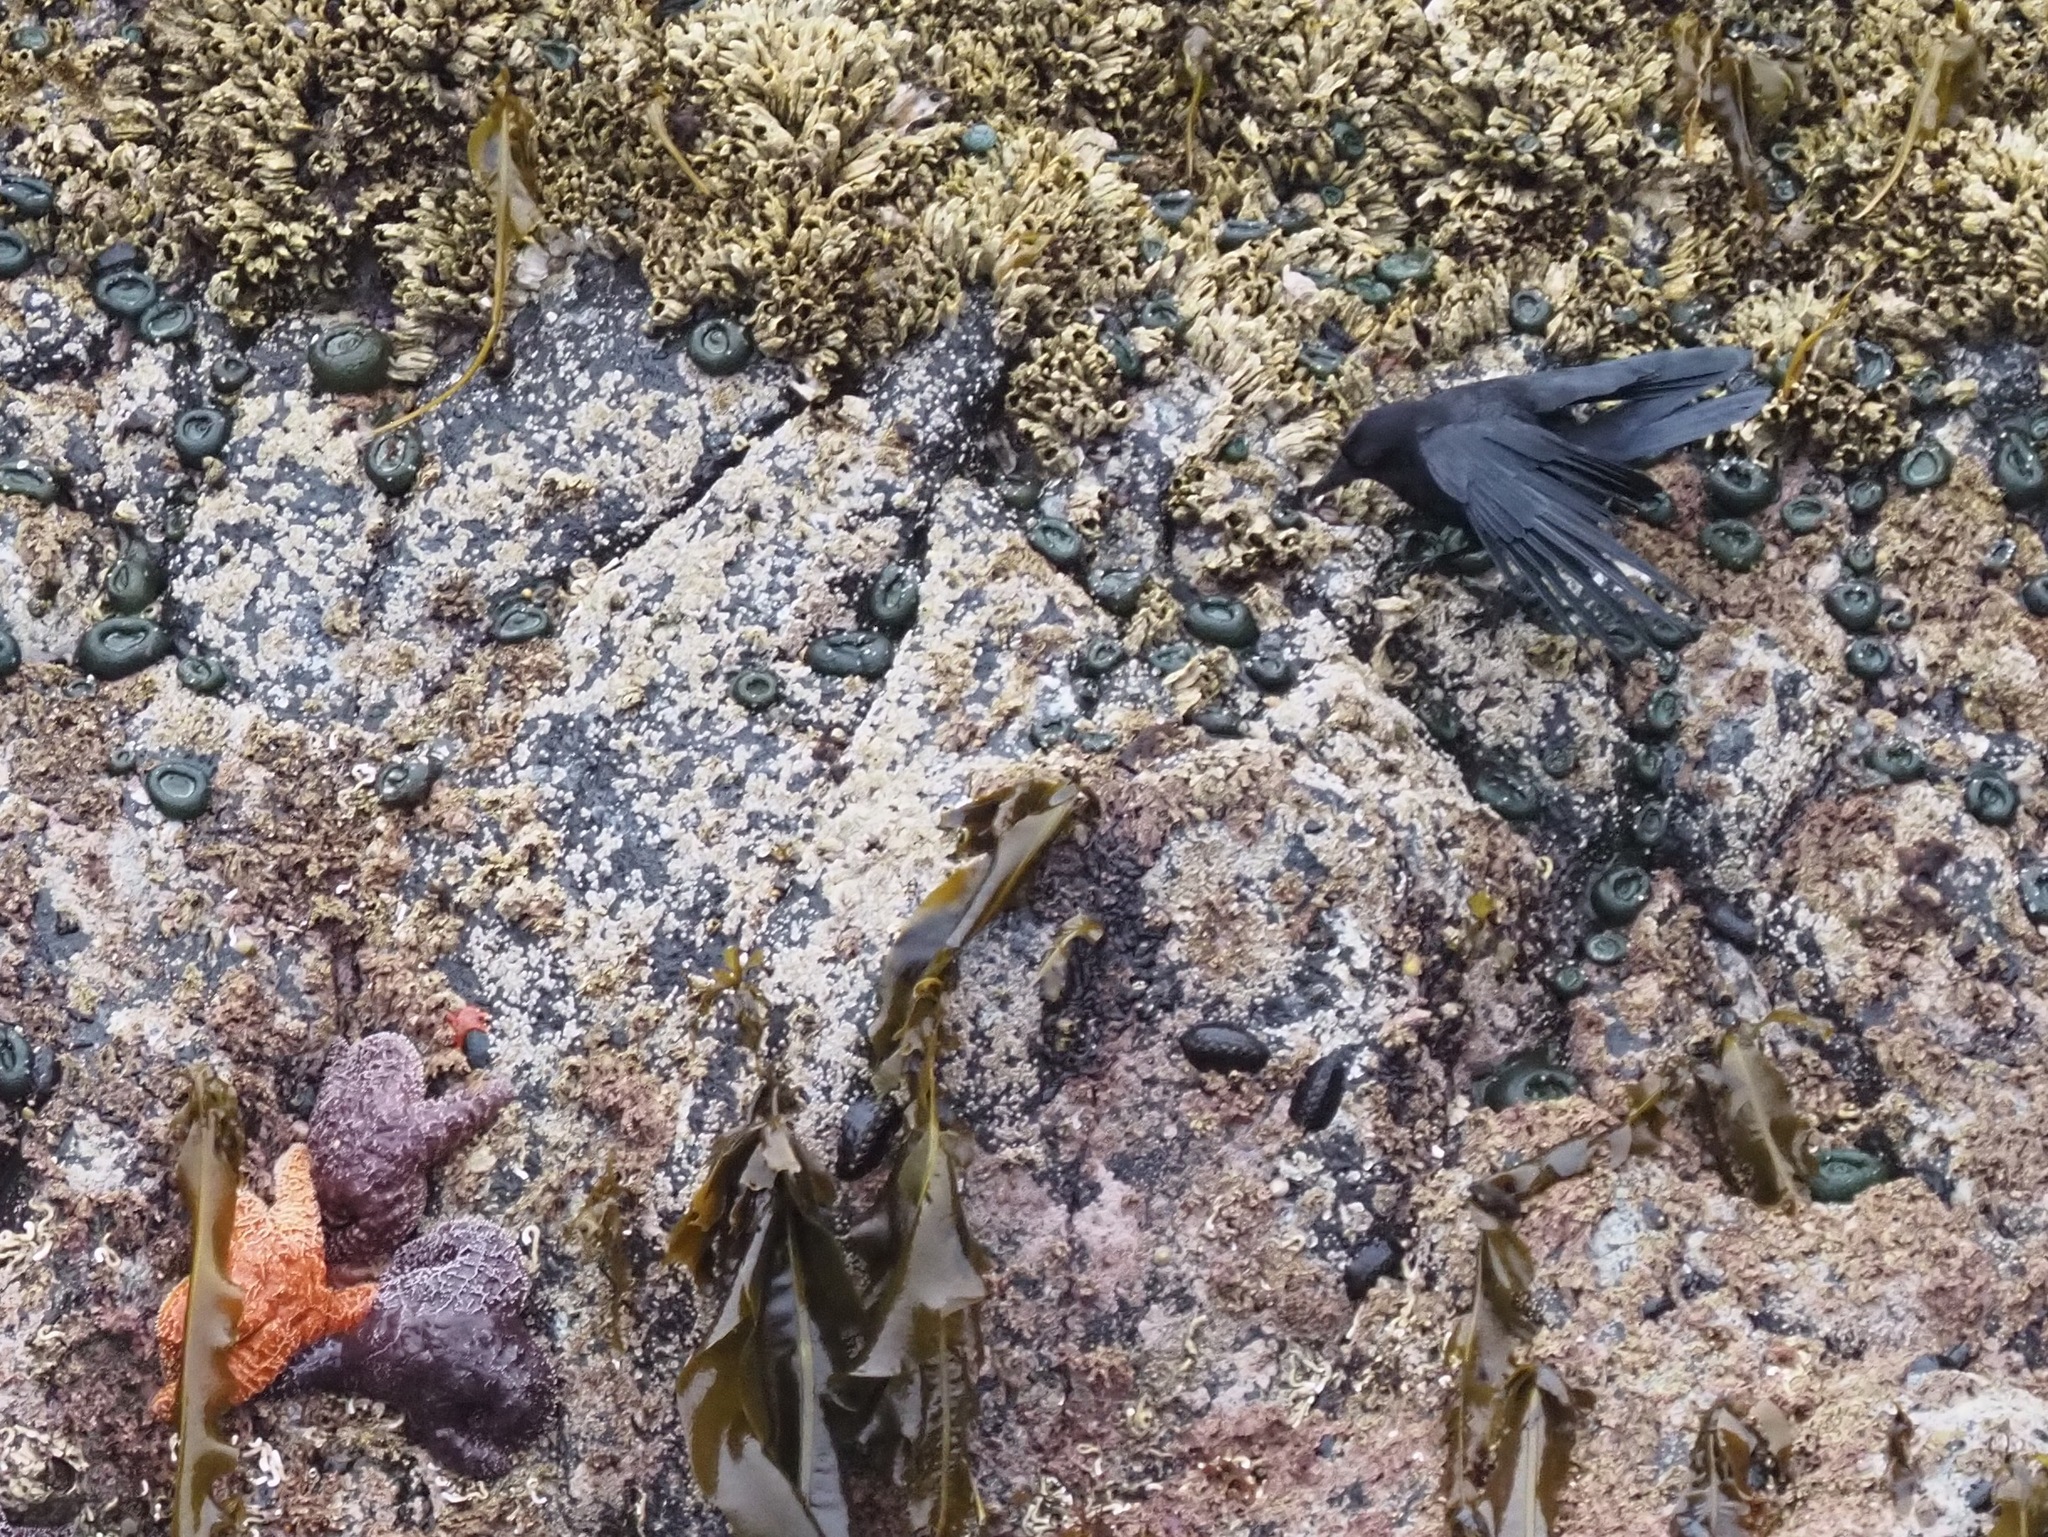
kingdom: Animalia
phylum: Chordata
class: Aves
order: Passeriformes
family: Corvidae
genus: Corvus
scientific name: Corvus brachyrhynchos
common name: American crow
